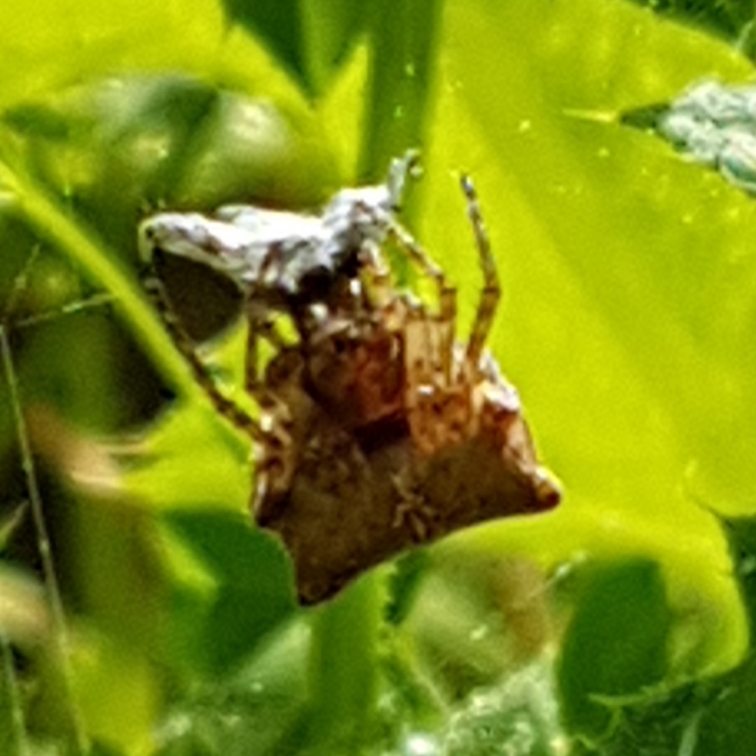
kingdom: Animalia
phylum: Arthropoda
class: Arachnida
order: Araneae
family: Araneidae
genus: Gibbaranea
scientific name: Gibbaranea bituberculata
